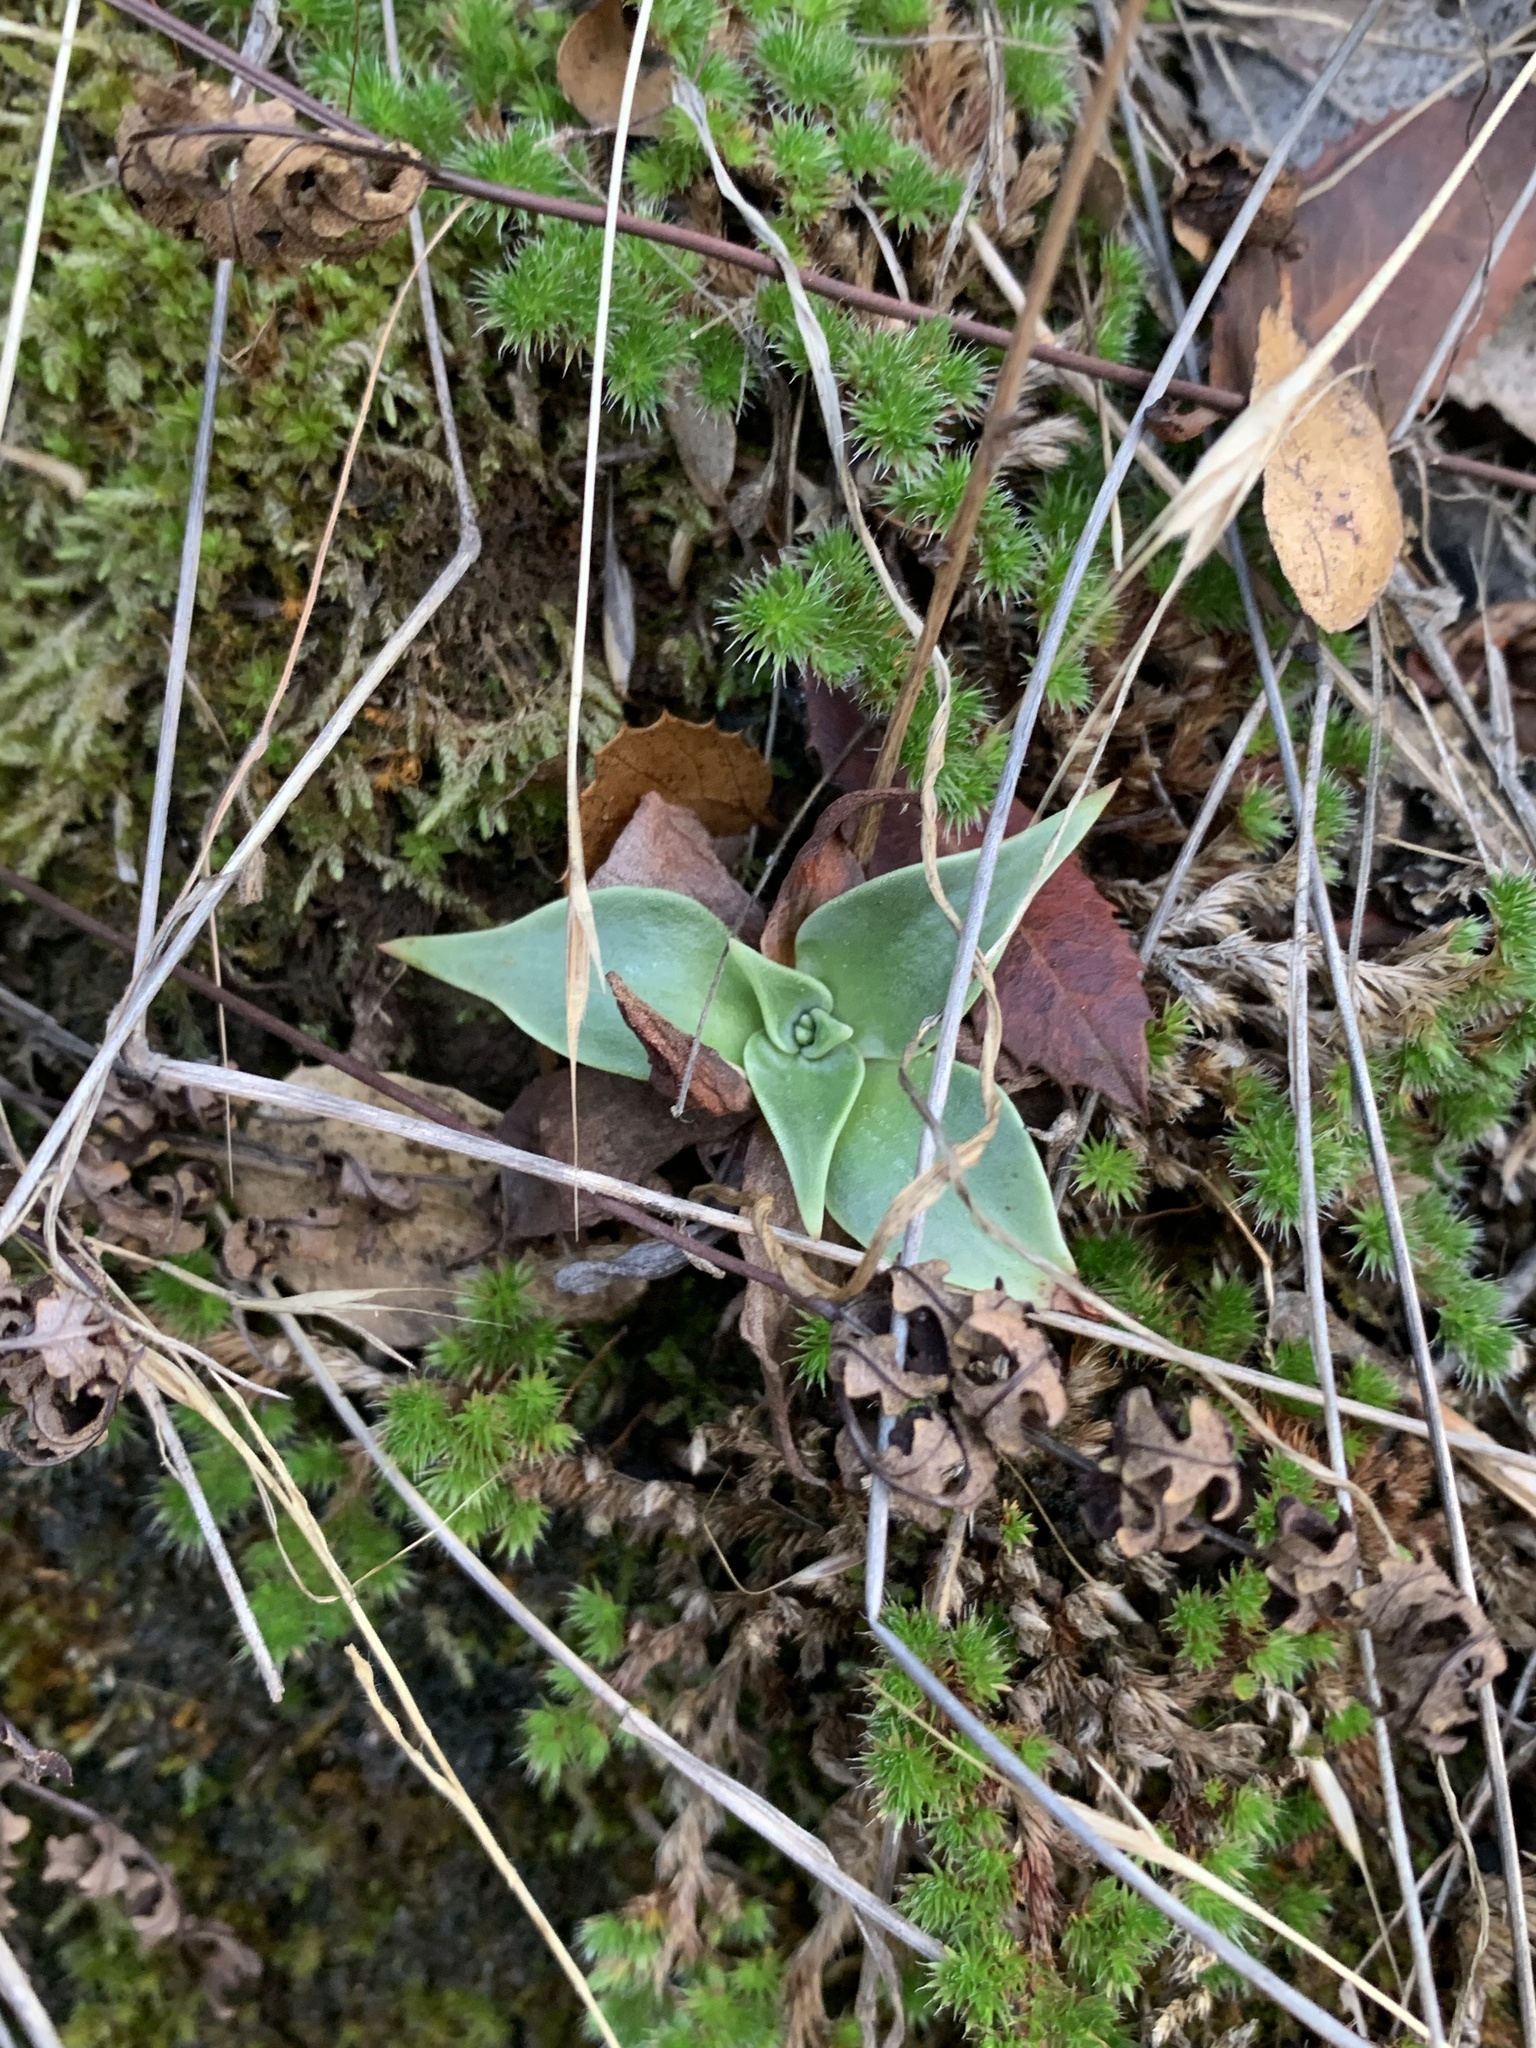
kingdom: Plantae
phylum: Tracheophyta
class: Magnoliopsida
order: Saxifragales
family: Crassulaceae
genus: Dudleya
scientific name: Dudleya cymosa
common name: Canyon dudleya
